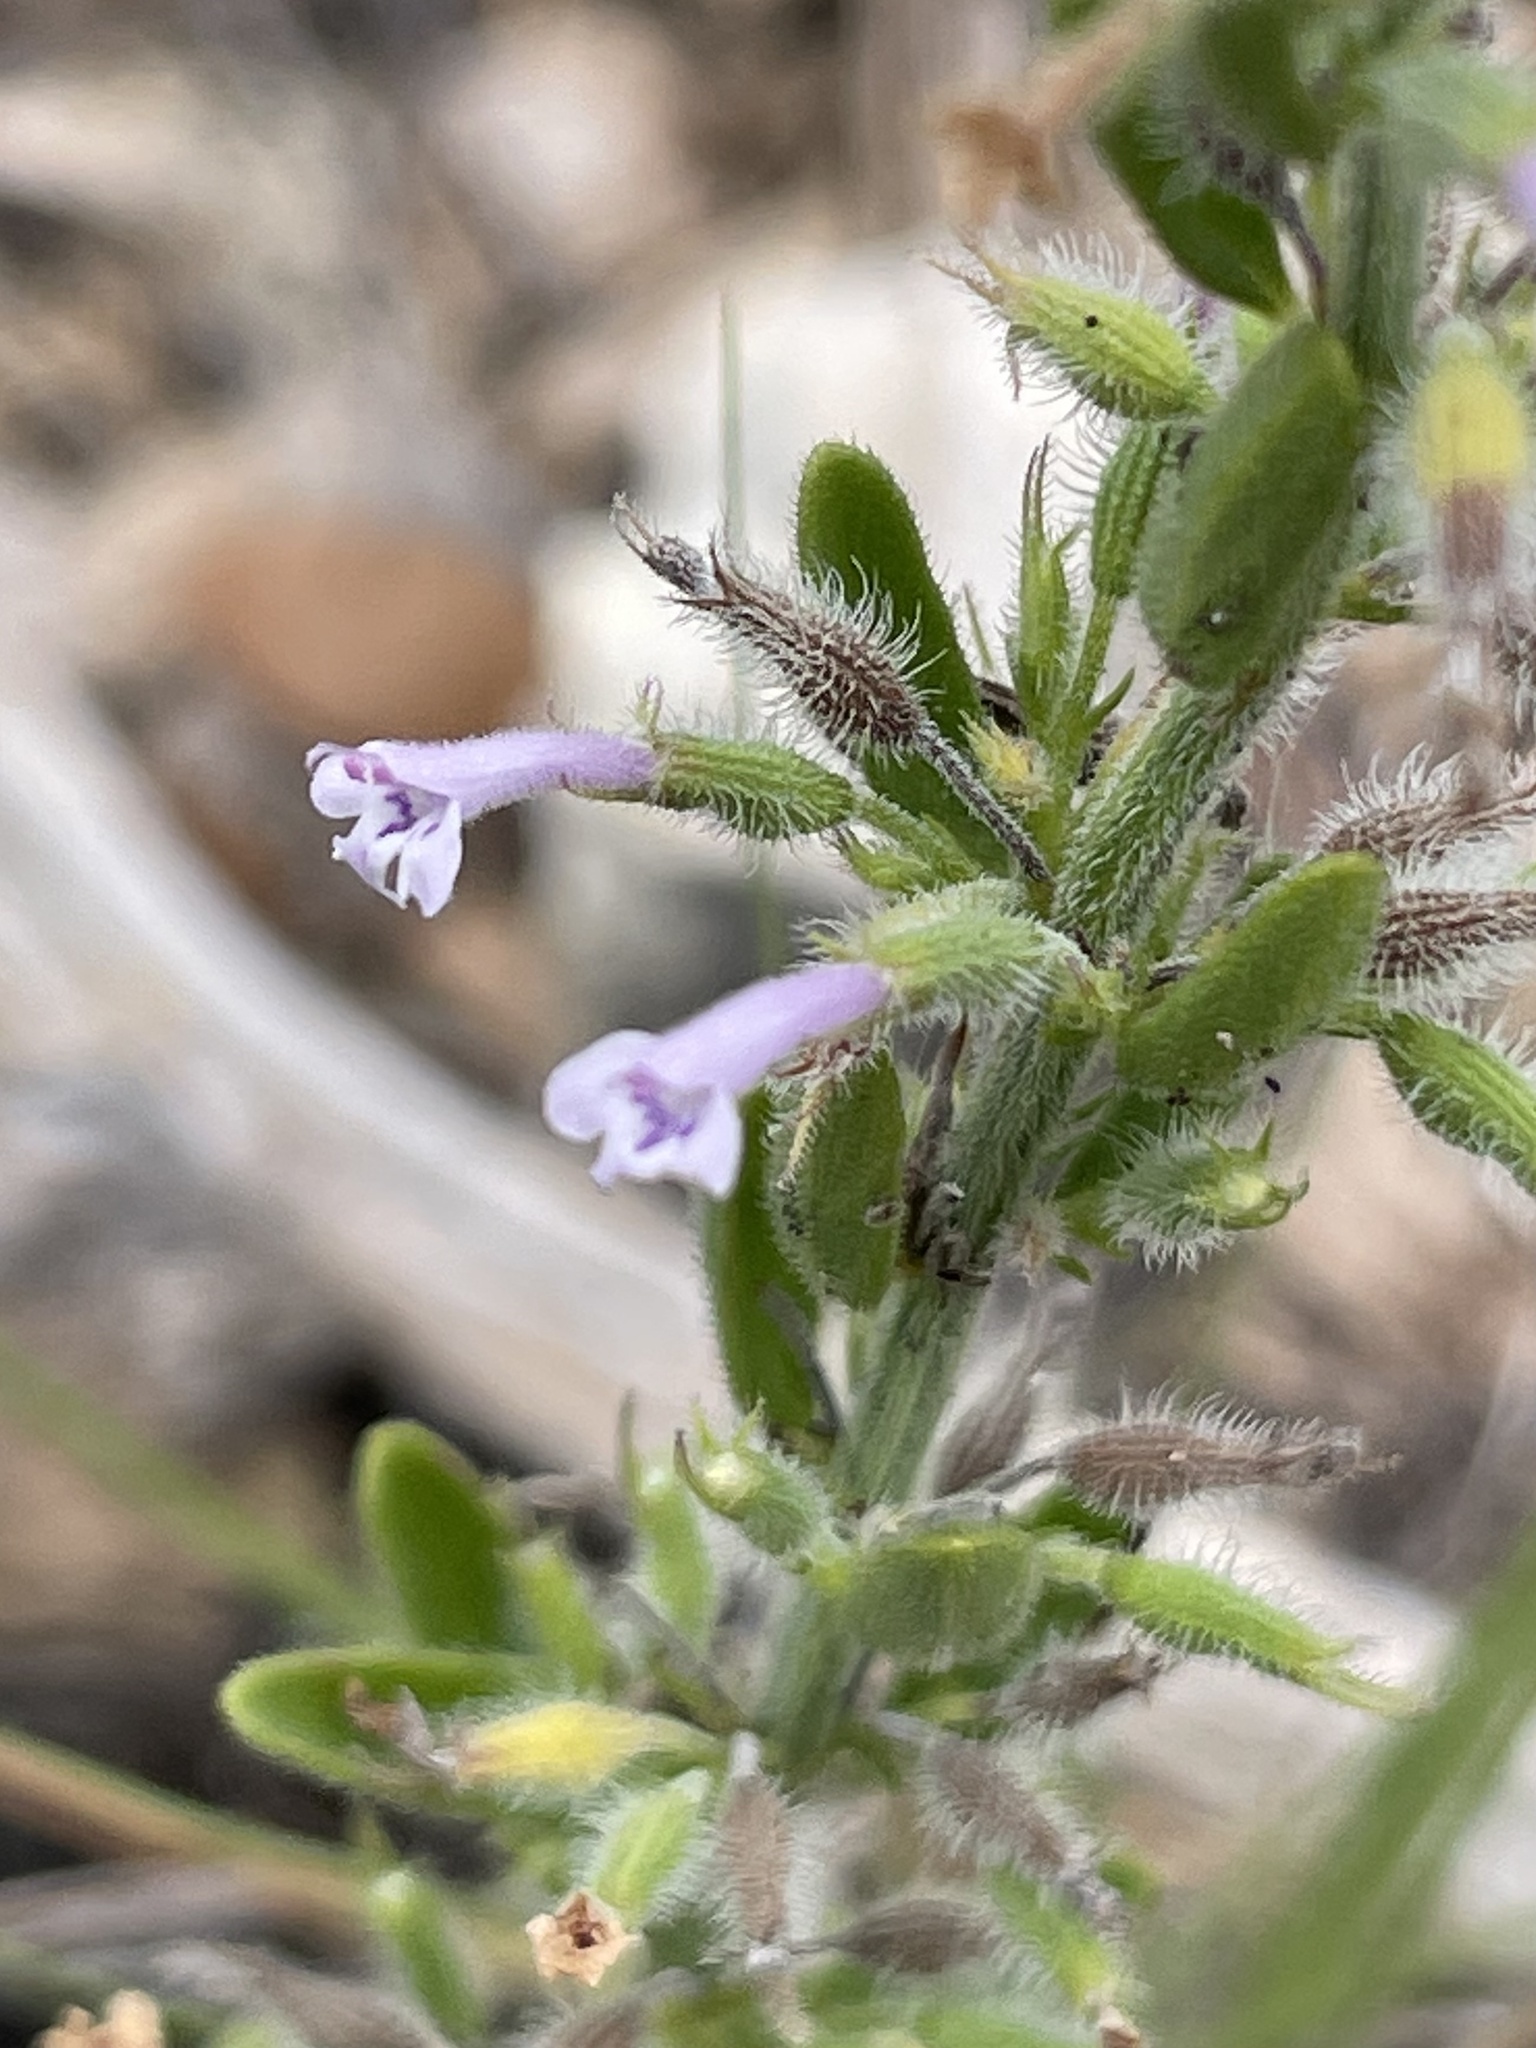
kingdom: Plantae
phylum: Tracheophyta
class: Magnoliopsida
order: Lamiales
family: Lamiaceae
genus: Hedeoma
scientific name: Hedeoma reverchonii
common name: Reverchon's false penny-royal
